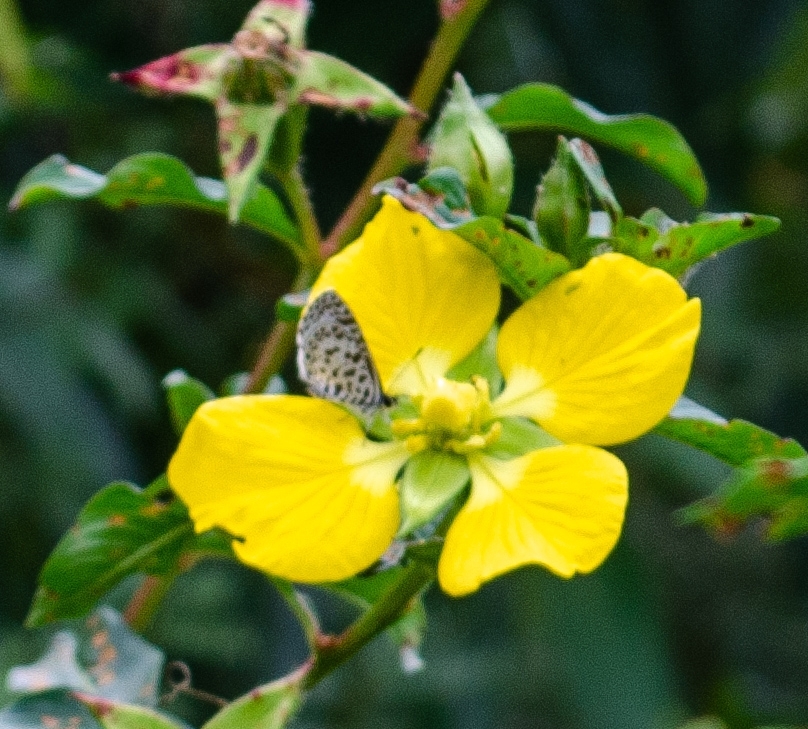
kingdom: Animalia
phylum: Arthropoda
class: Insecta
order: Lepidoptera
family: Lycaenidae
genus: Leptotes
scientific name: Leptotes cassius
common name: Cassius blue
